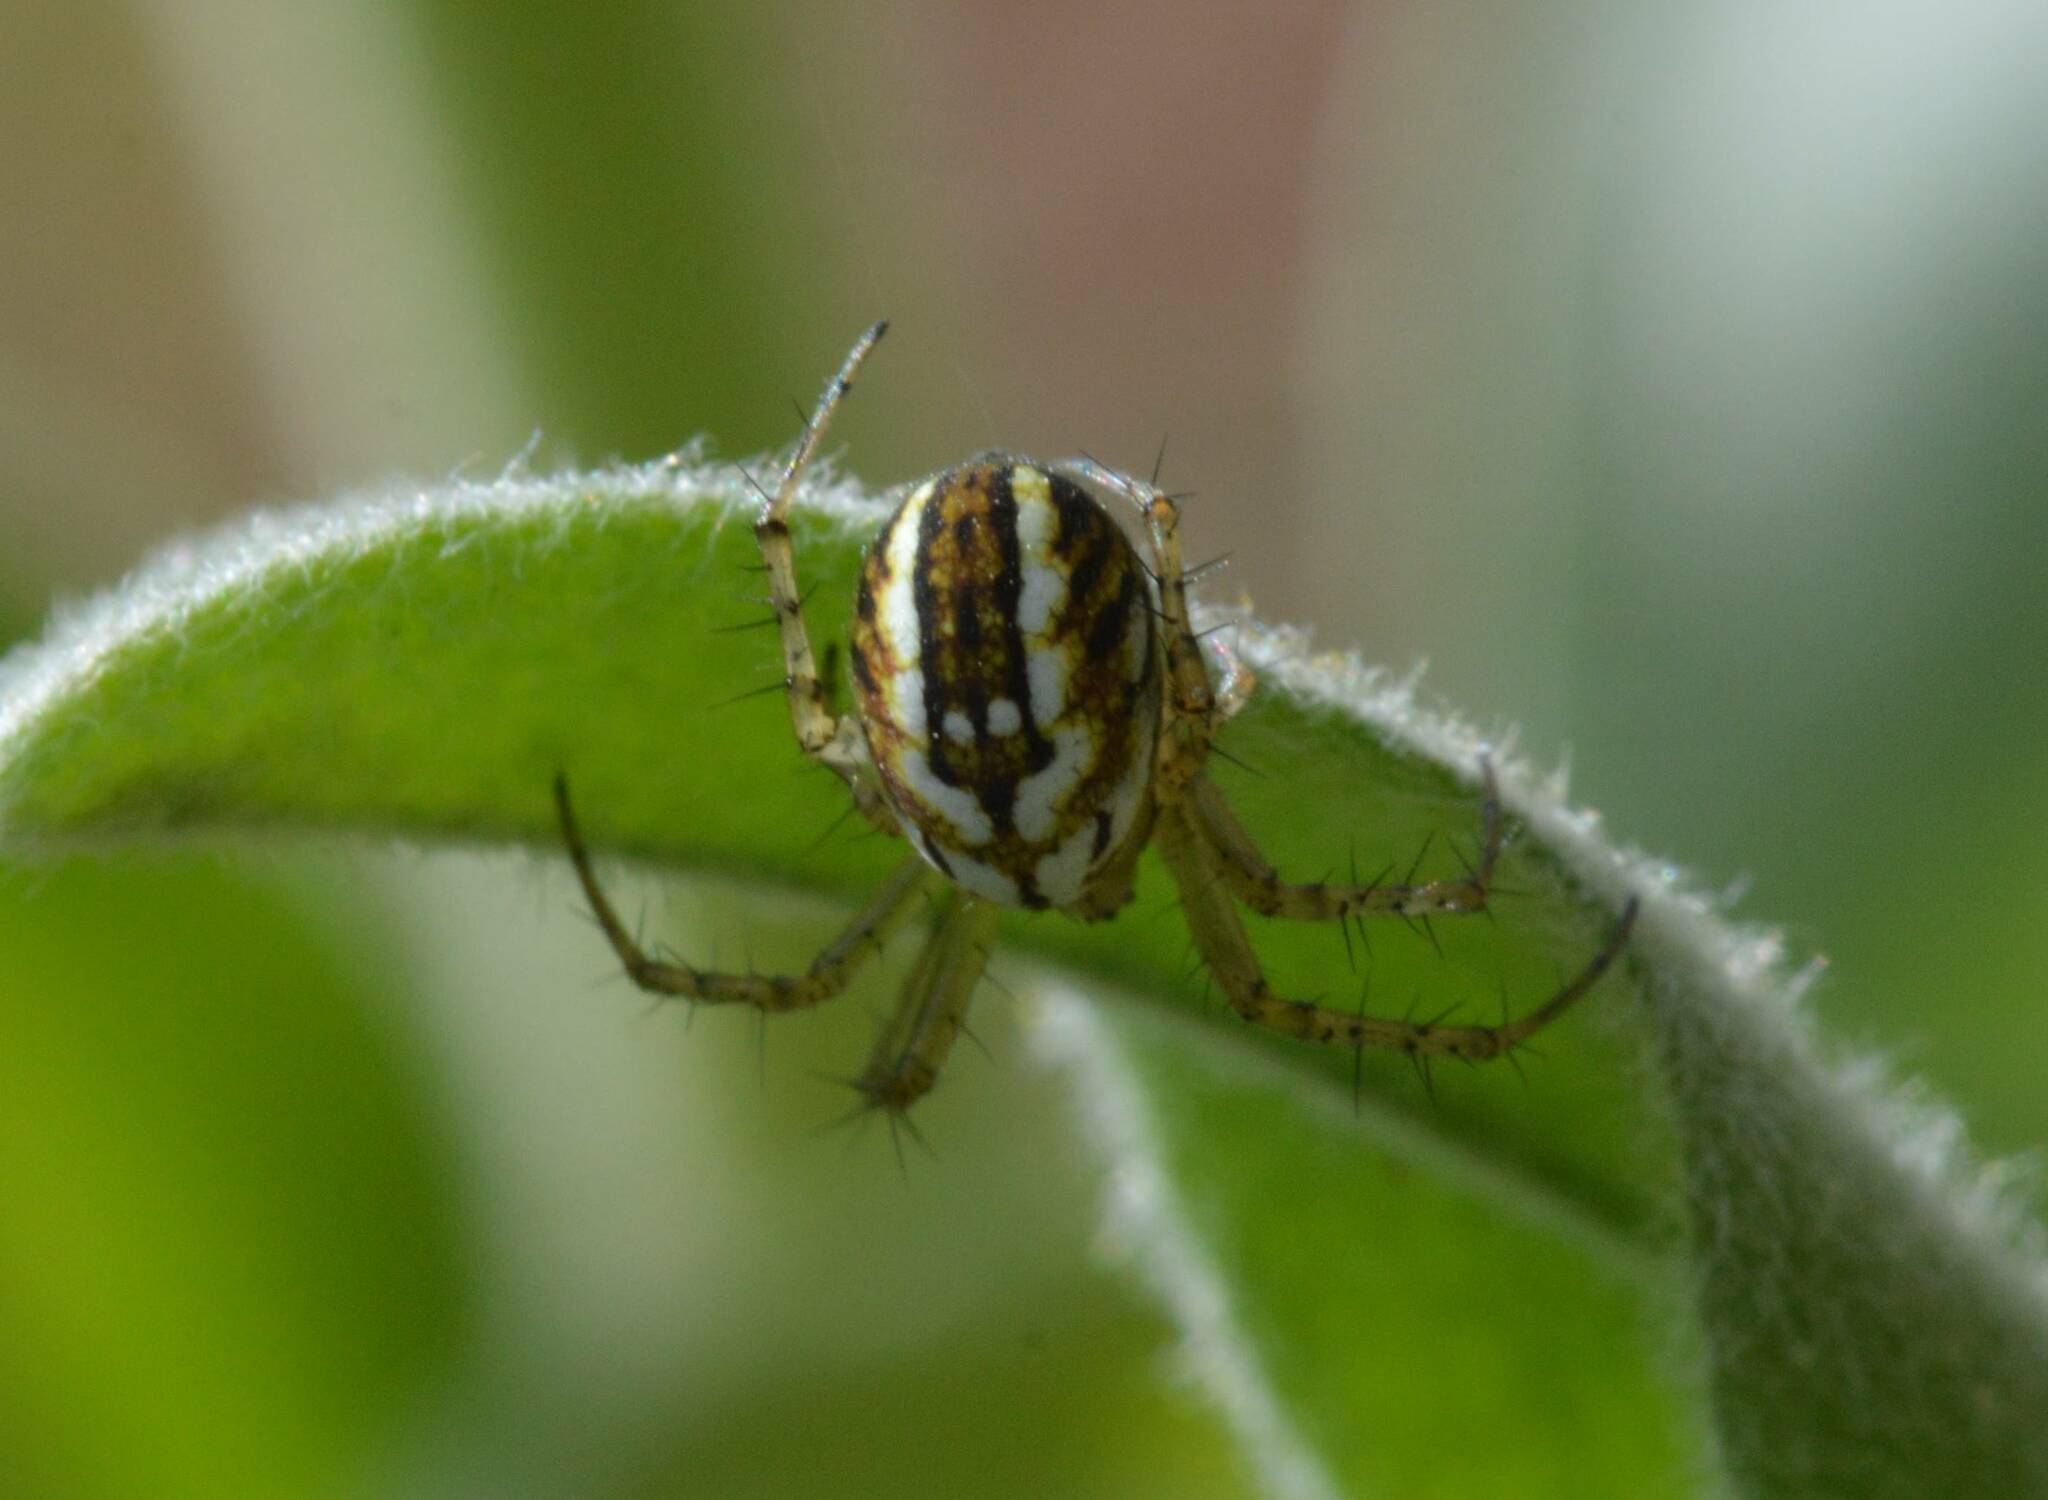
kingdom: Animalia
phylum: Arthropoda
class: Arachnida
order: Araneae
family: Araneidae
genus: Mangora
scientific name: Mangora acalypha
